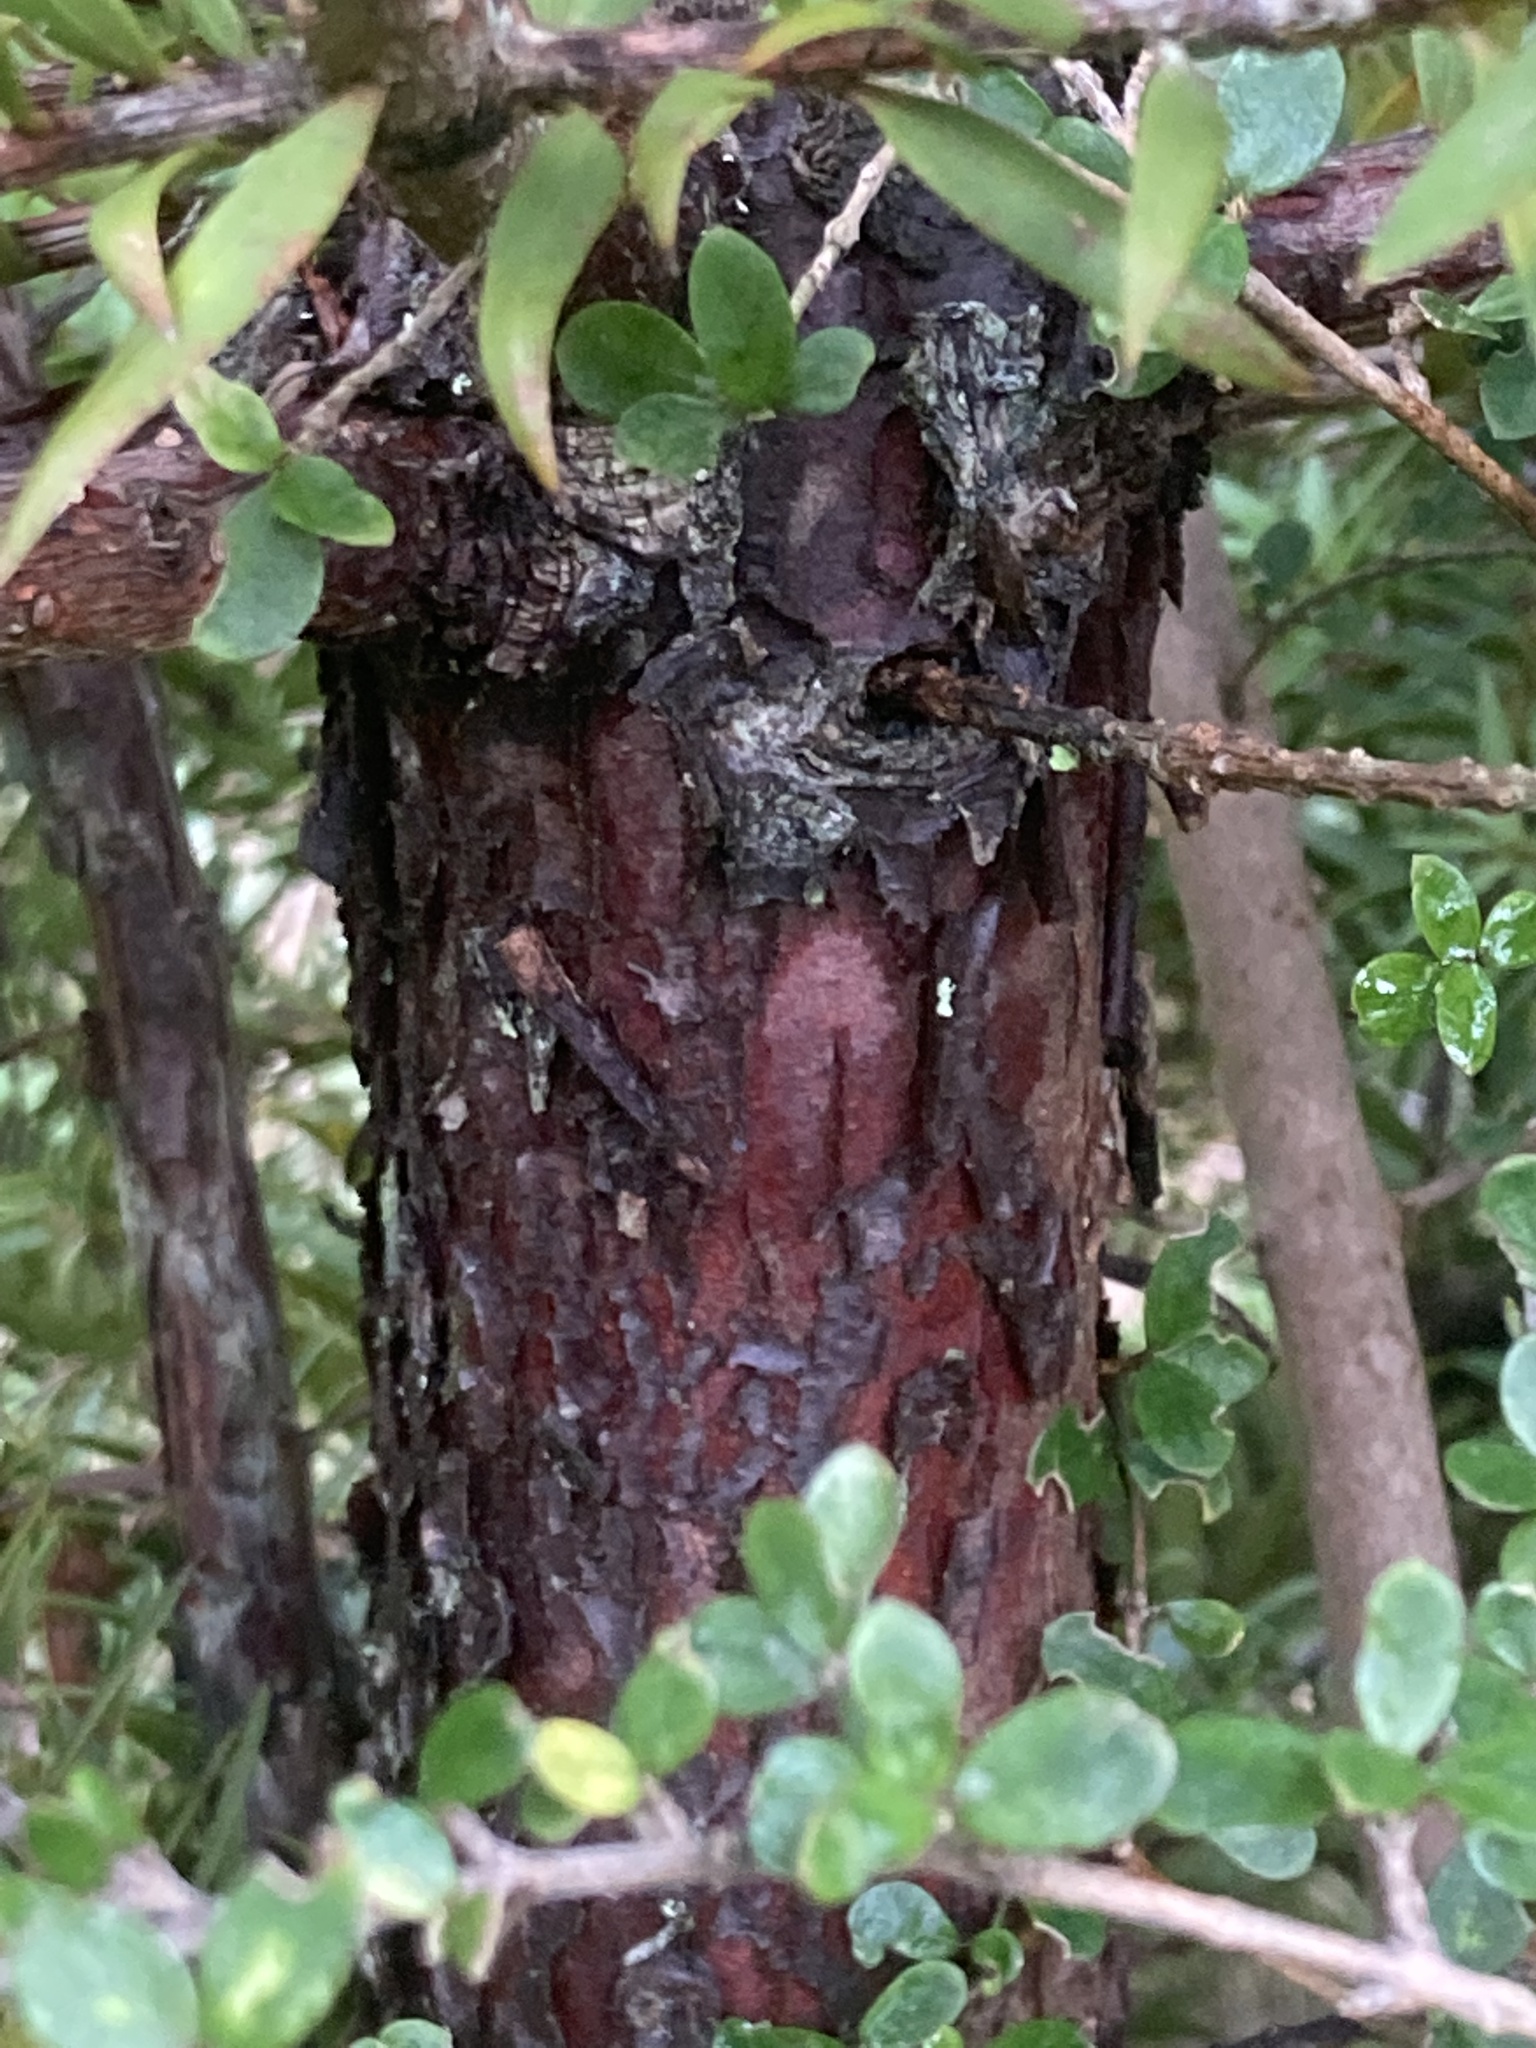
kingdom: Plantae
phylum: Tracheophyta
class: Pinopsida
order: Pinales
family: Podocarpaceae
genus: Podocarpus
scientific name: Podocarpus totara
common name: Totara
